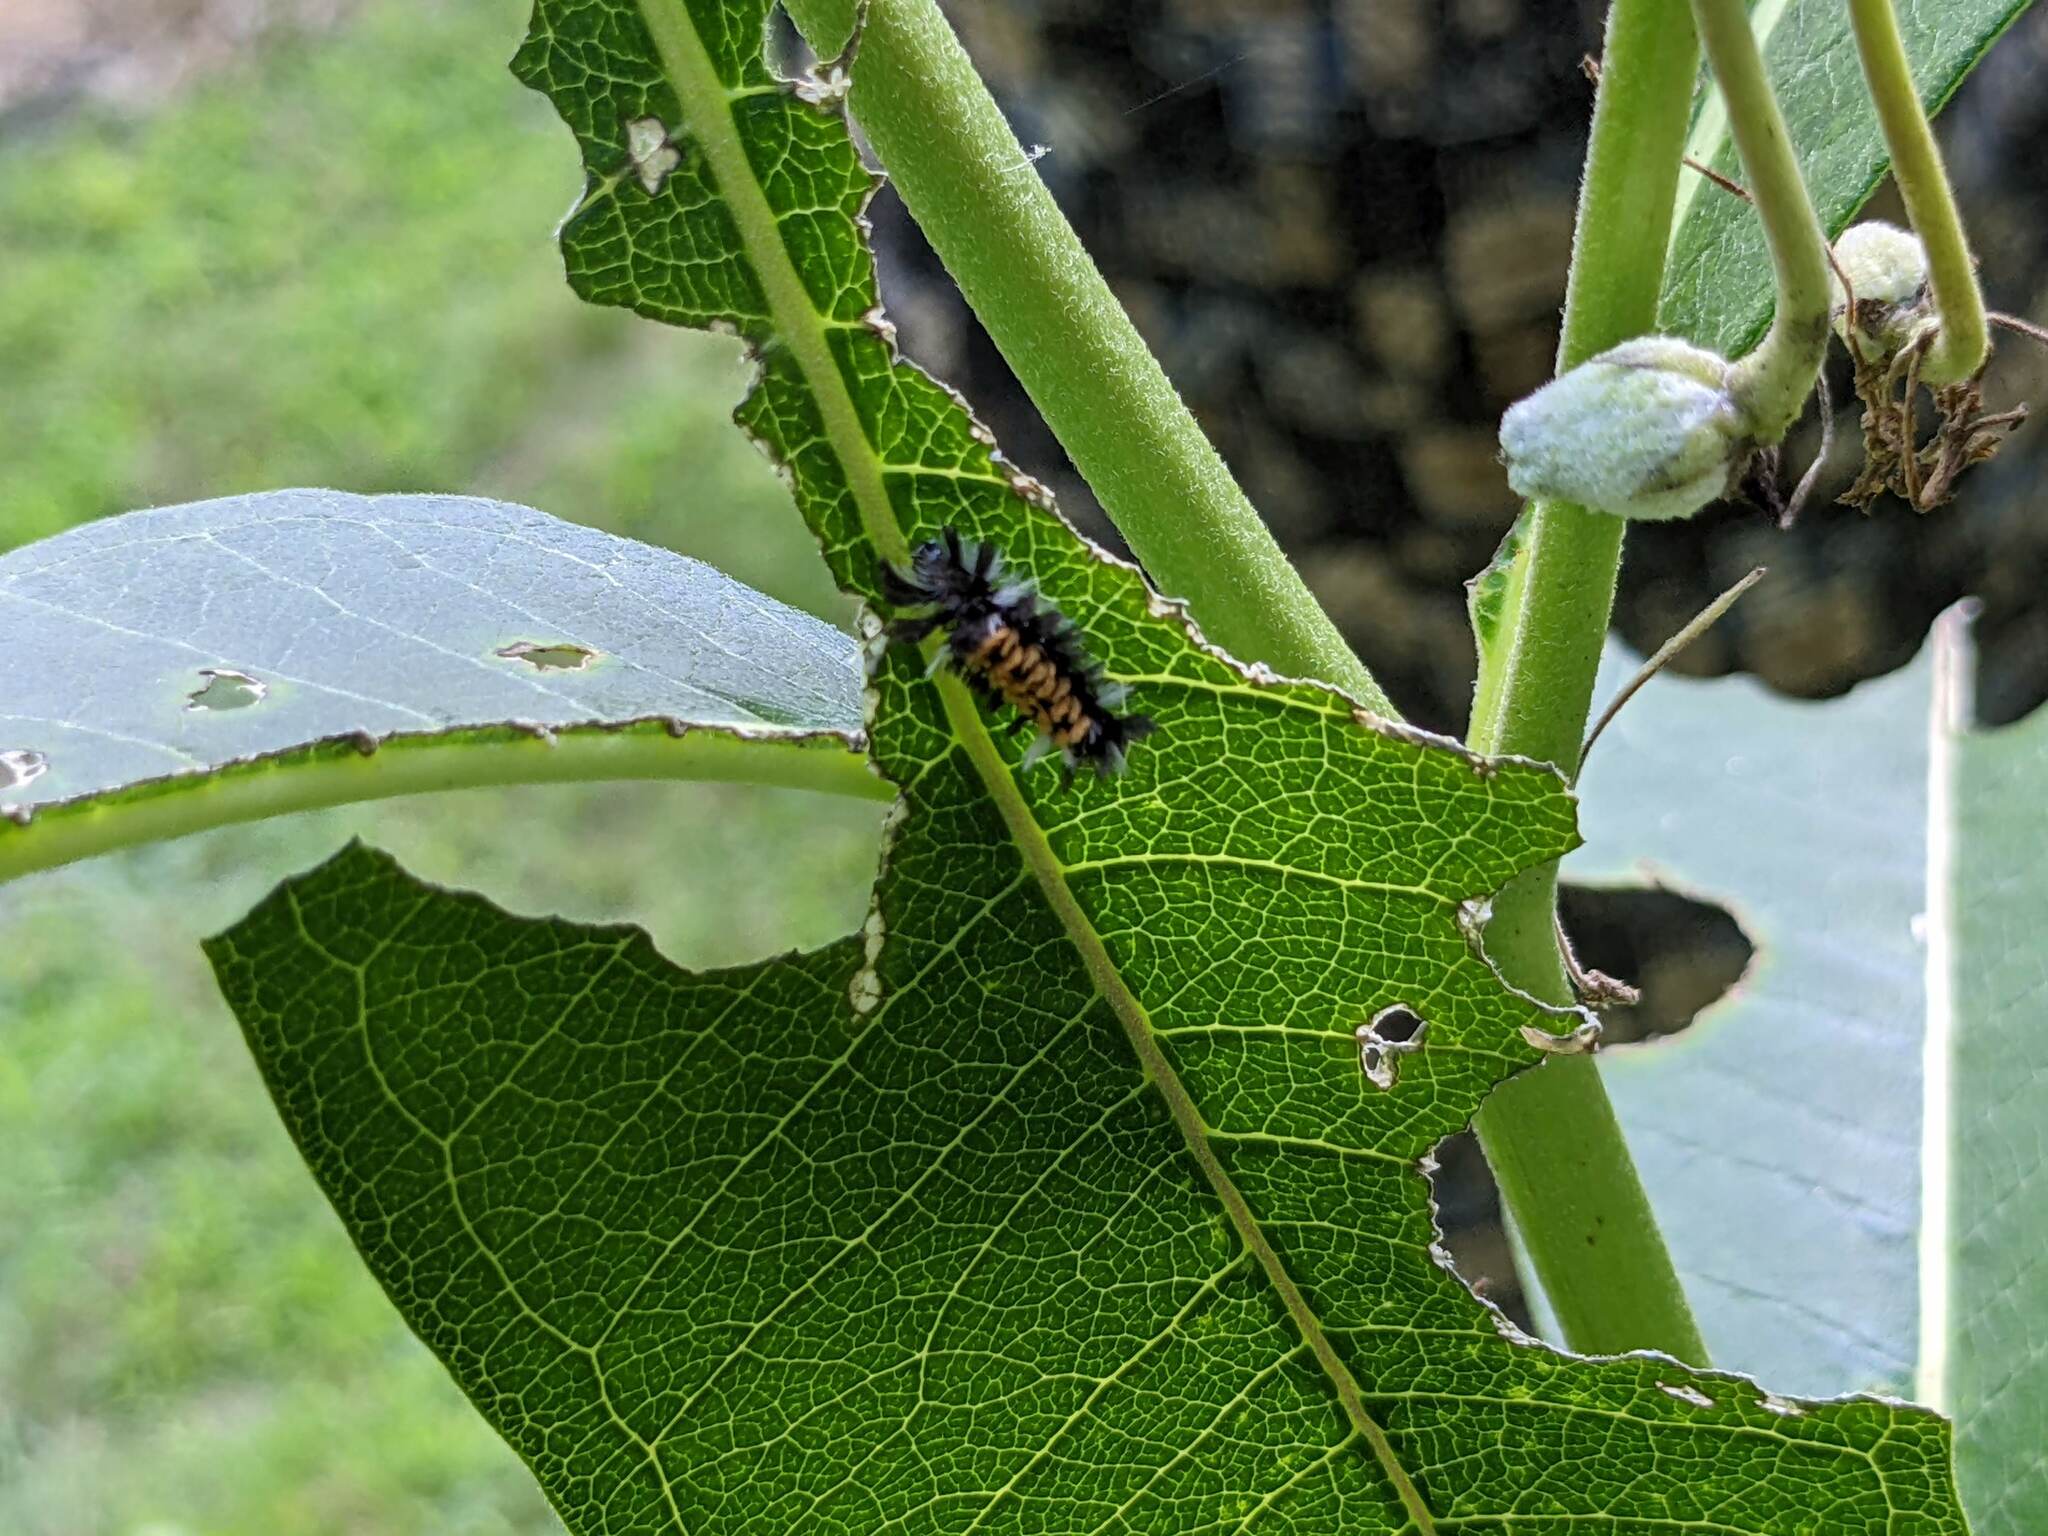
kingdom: Animalia
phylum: Arthropoda
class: Insecta
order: Lepidoptera
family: Erebidae
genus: Euchaetes
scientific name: Euchaetes egle
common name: Milkweed tussock moth
